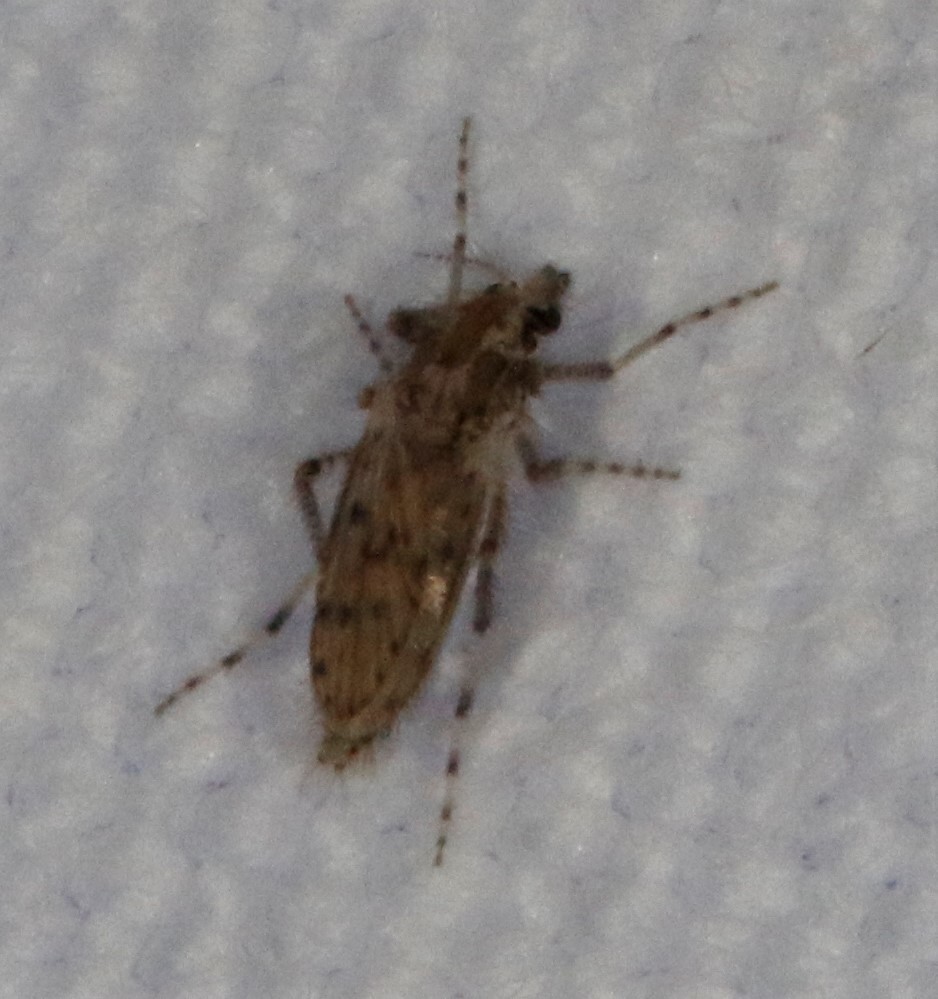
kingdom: Animalia
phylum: Arthropoda
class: Insecta
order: Diptera
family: Chaoboridae
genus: Chaoborus
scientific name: Chaoborus punctipennis
